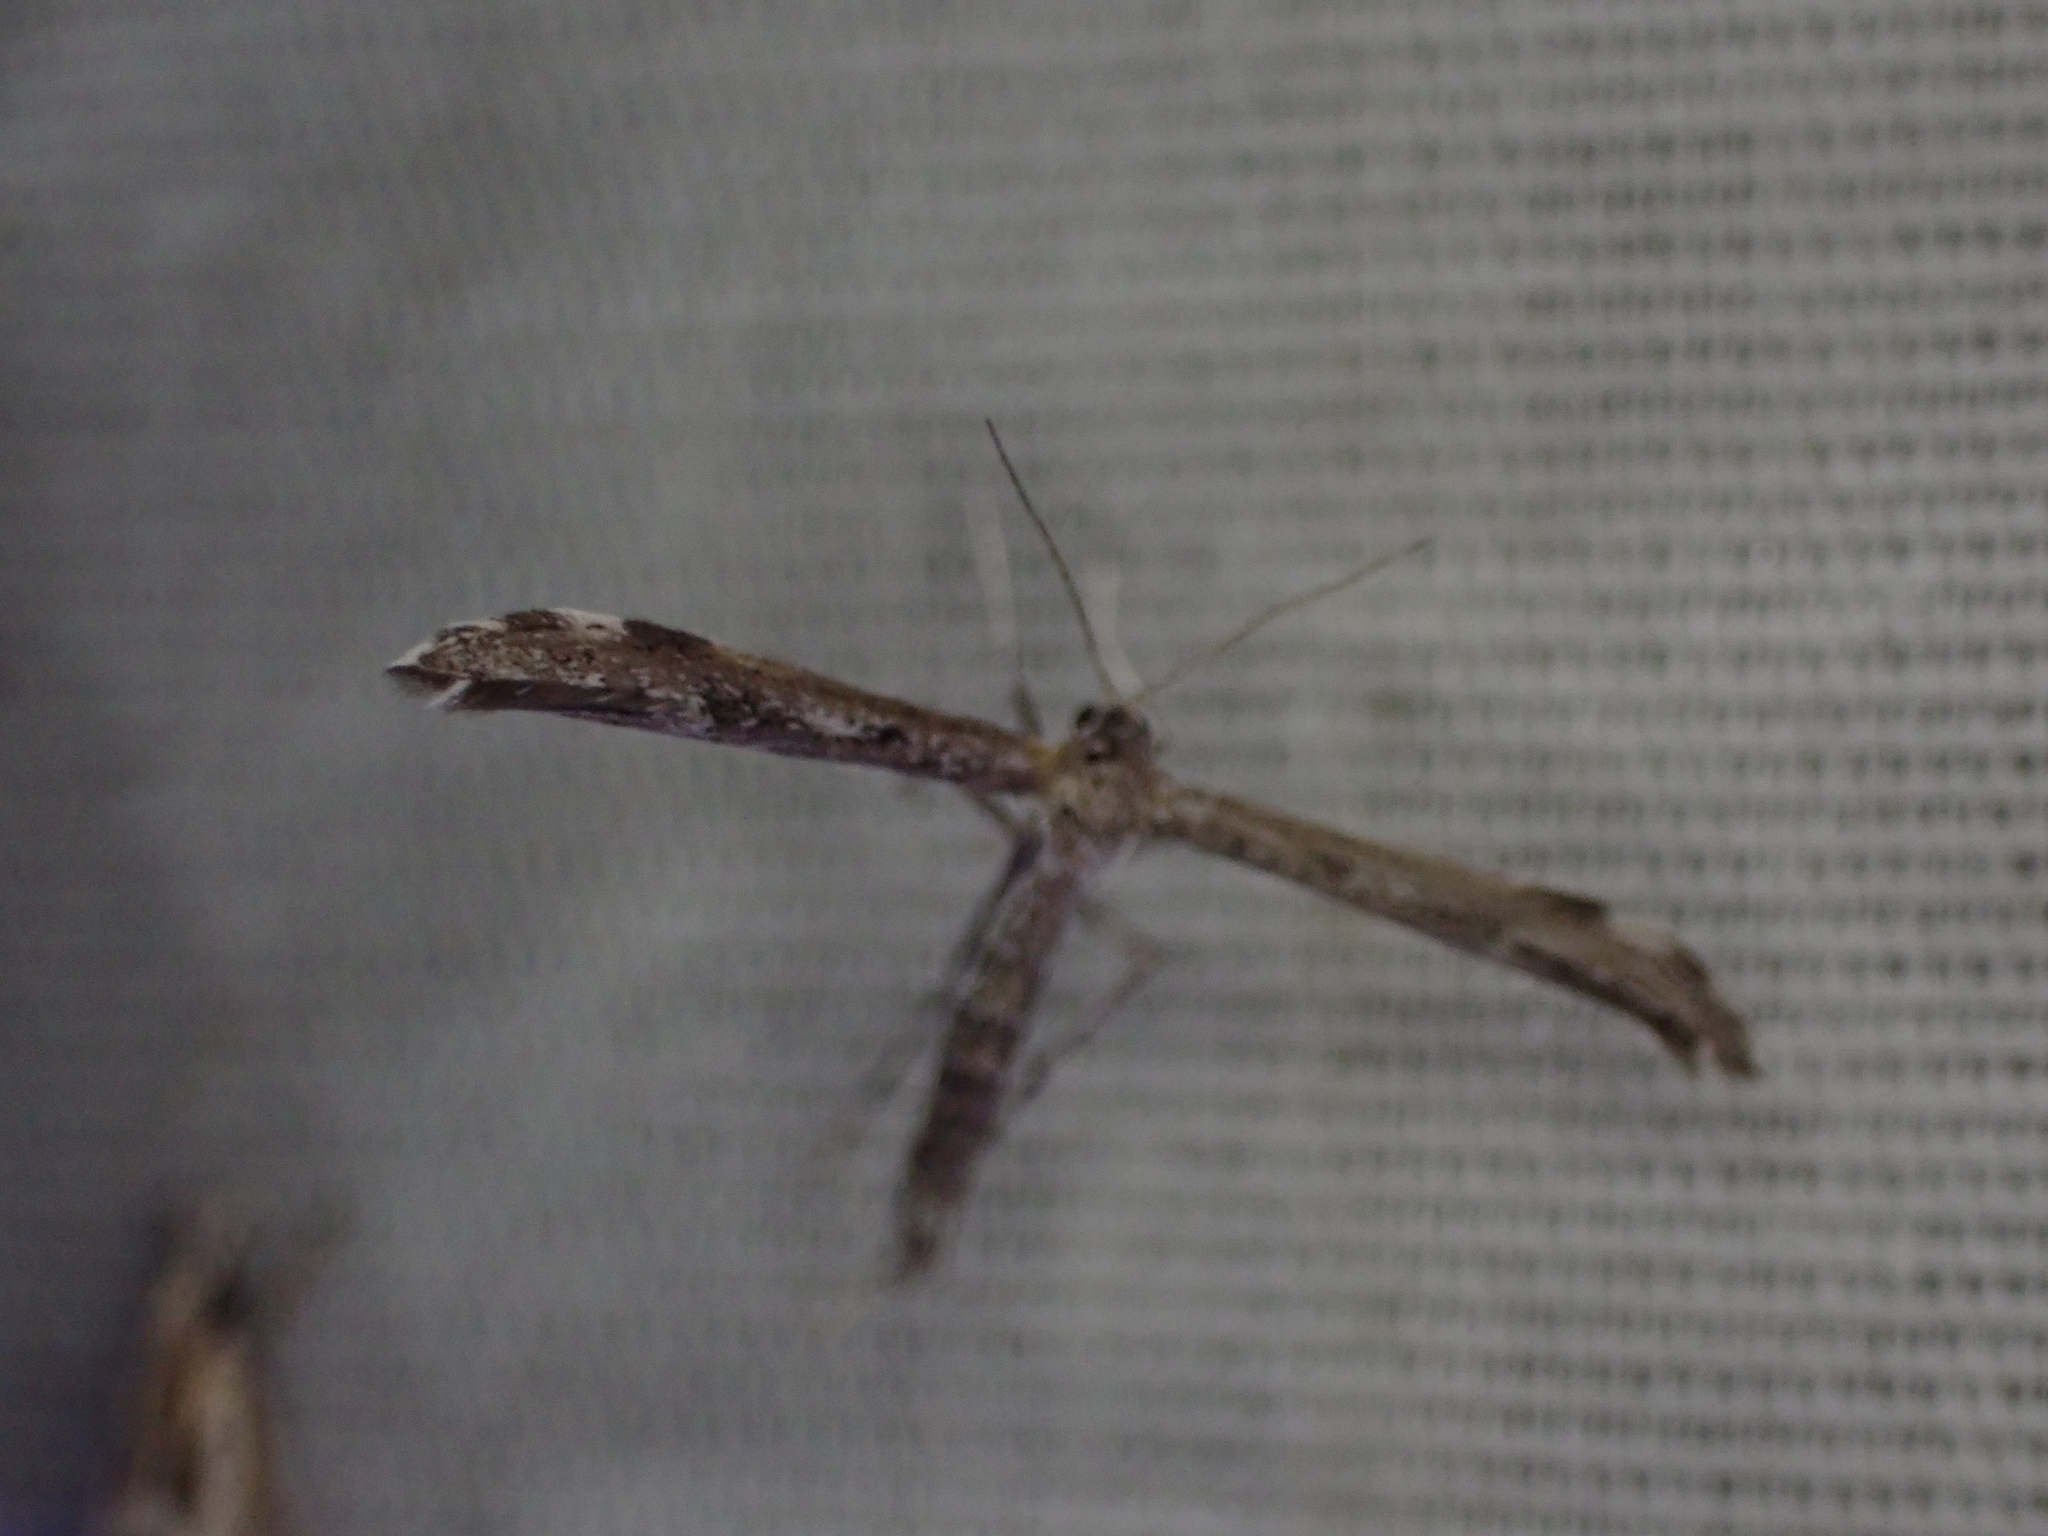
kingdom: Animalia
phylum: Arthropoda
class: Insecta
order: Lepidoptera
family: Pterophoridae
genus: Hellinsia
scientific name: Hellinsia inquinatus
